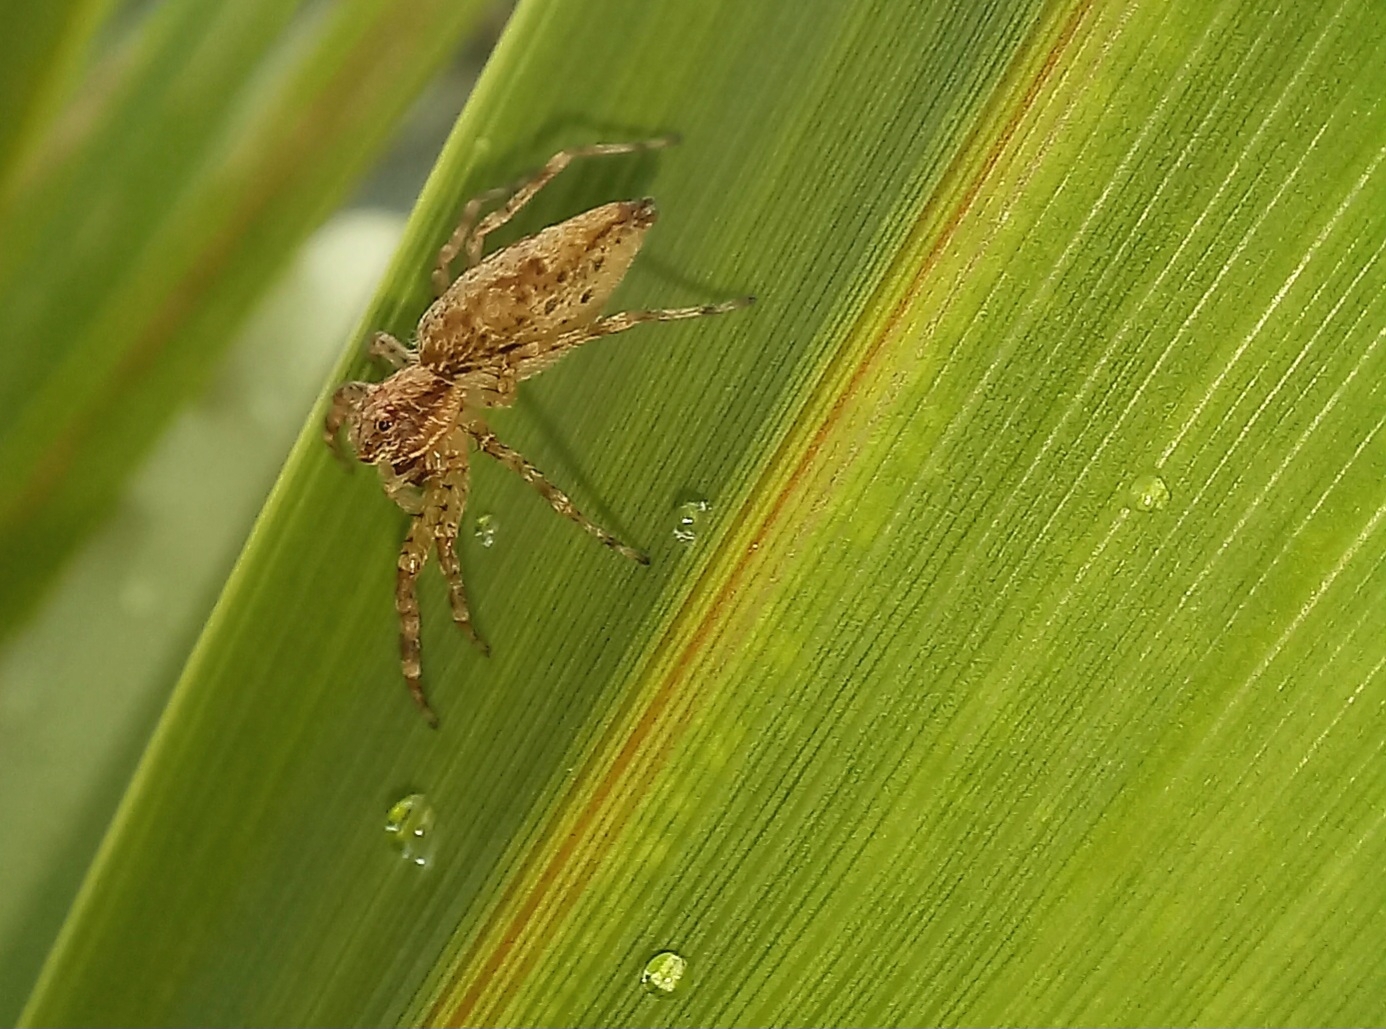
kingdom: Animalia
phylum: Arthropoda
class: Arachnida
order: Araneae
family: Salticidae
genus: Helpis
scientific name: Helpis minitabunda
